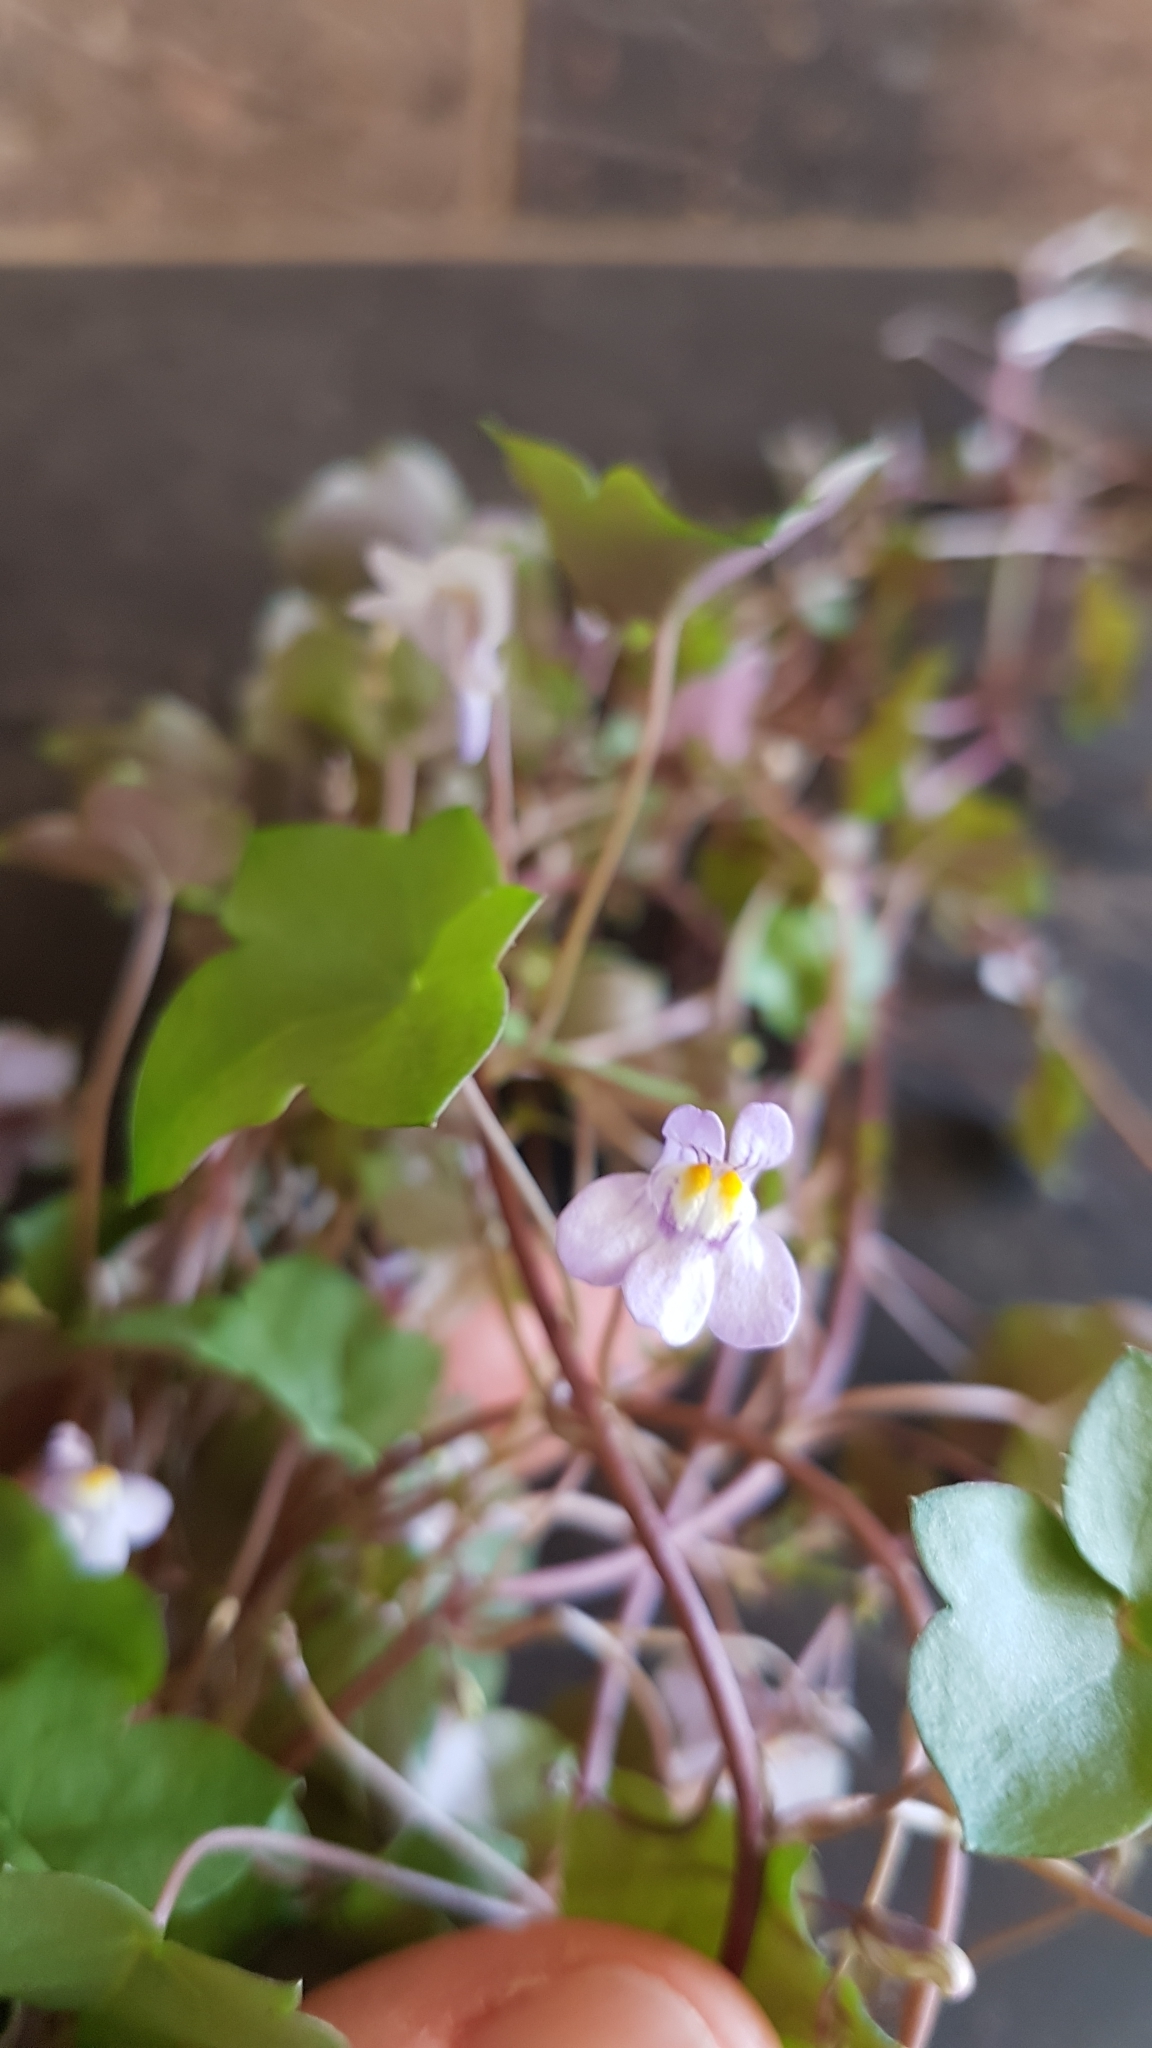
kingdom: Plantae
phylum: Tracheophyta
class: Magnoliopsida
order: Lamiales
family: Plantaginaceae
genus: Cymbalaria
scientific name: Cymbalaria muralis
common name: Ivy-leaved toadflax
